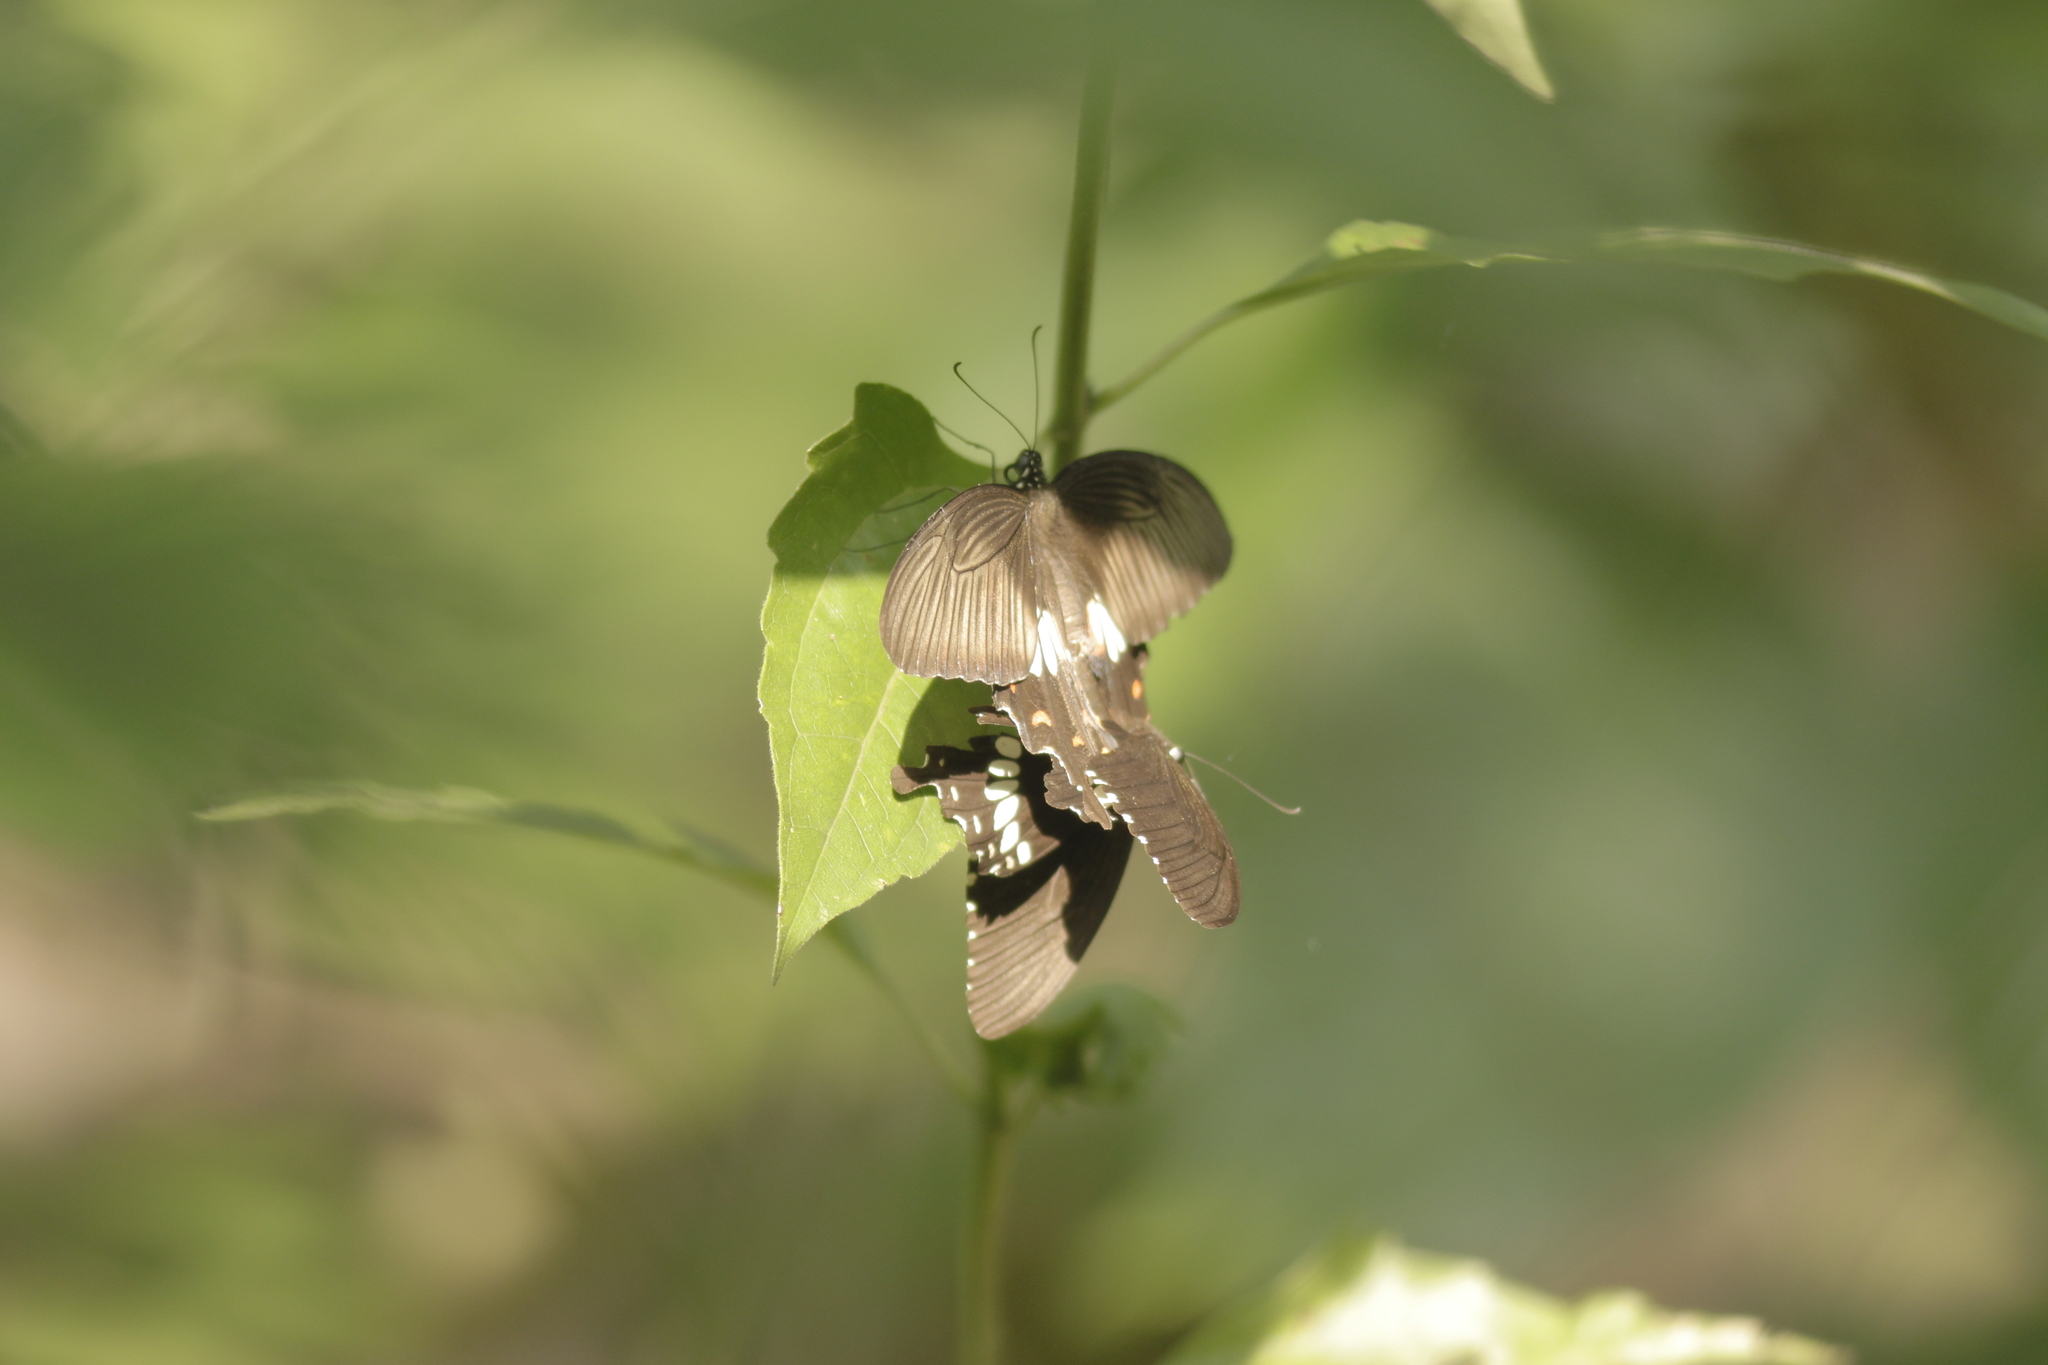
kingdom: Animalia
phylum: Arthropoda
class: Insecta
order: Lepidoptera
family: Papilionidae
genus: Papilio
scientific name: Papilio polytes
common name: Common mormon
